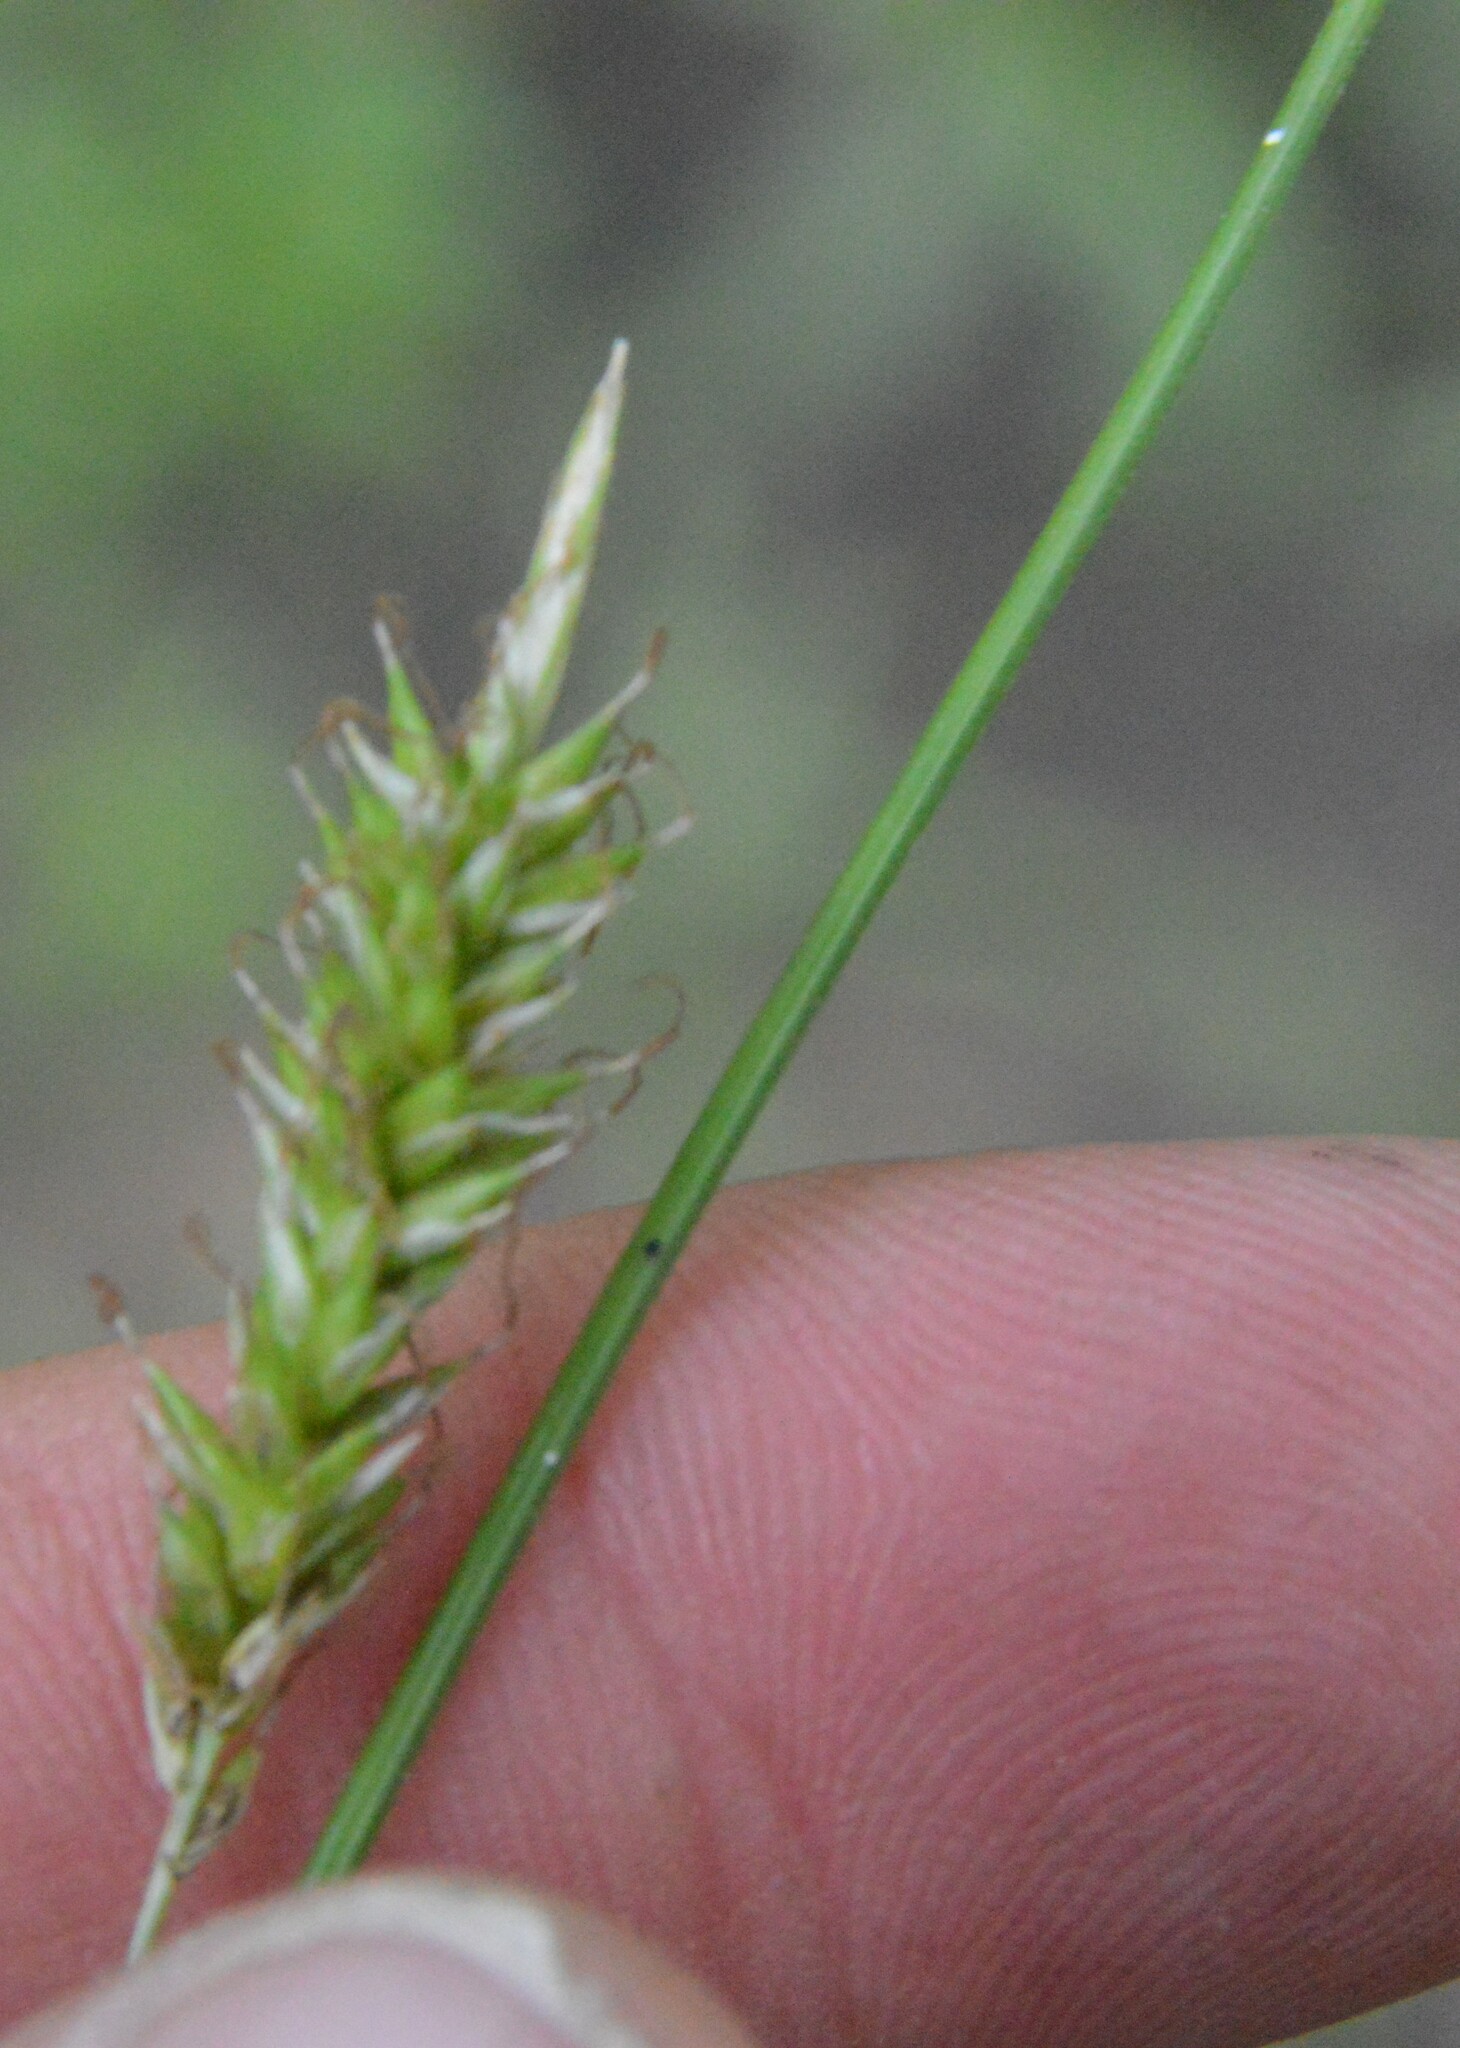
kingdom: Plantae
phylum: Tracheophyta
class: Liliopsida
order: Poales
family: Cyperaceae
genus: Carex
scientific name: Carex cherokeensis
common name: Cherokee sedge
